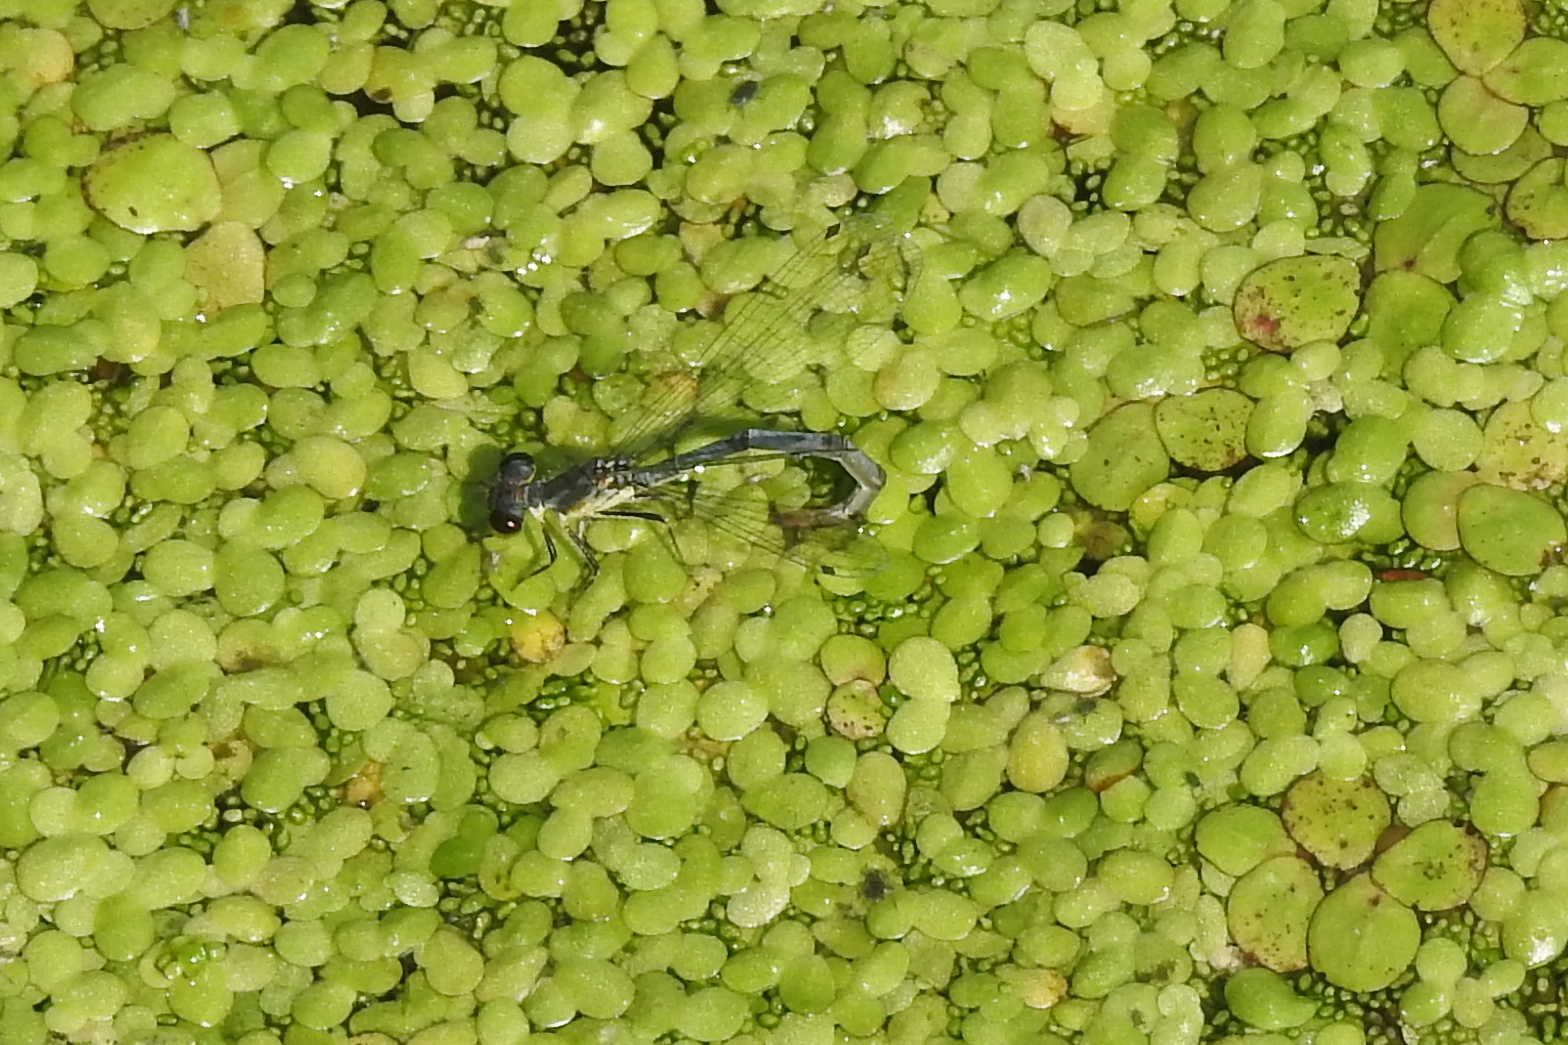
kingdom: Animalia
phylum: Arthropoda
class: Insecta
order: Odonata
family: Coenagrionidae
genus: Ischnura
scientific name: Ischnura posita
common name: Fragile forktail
